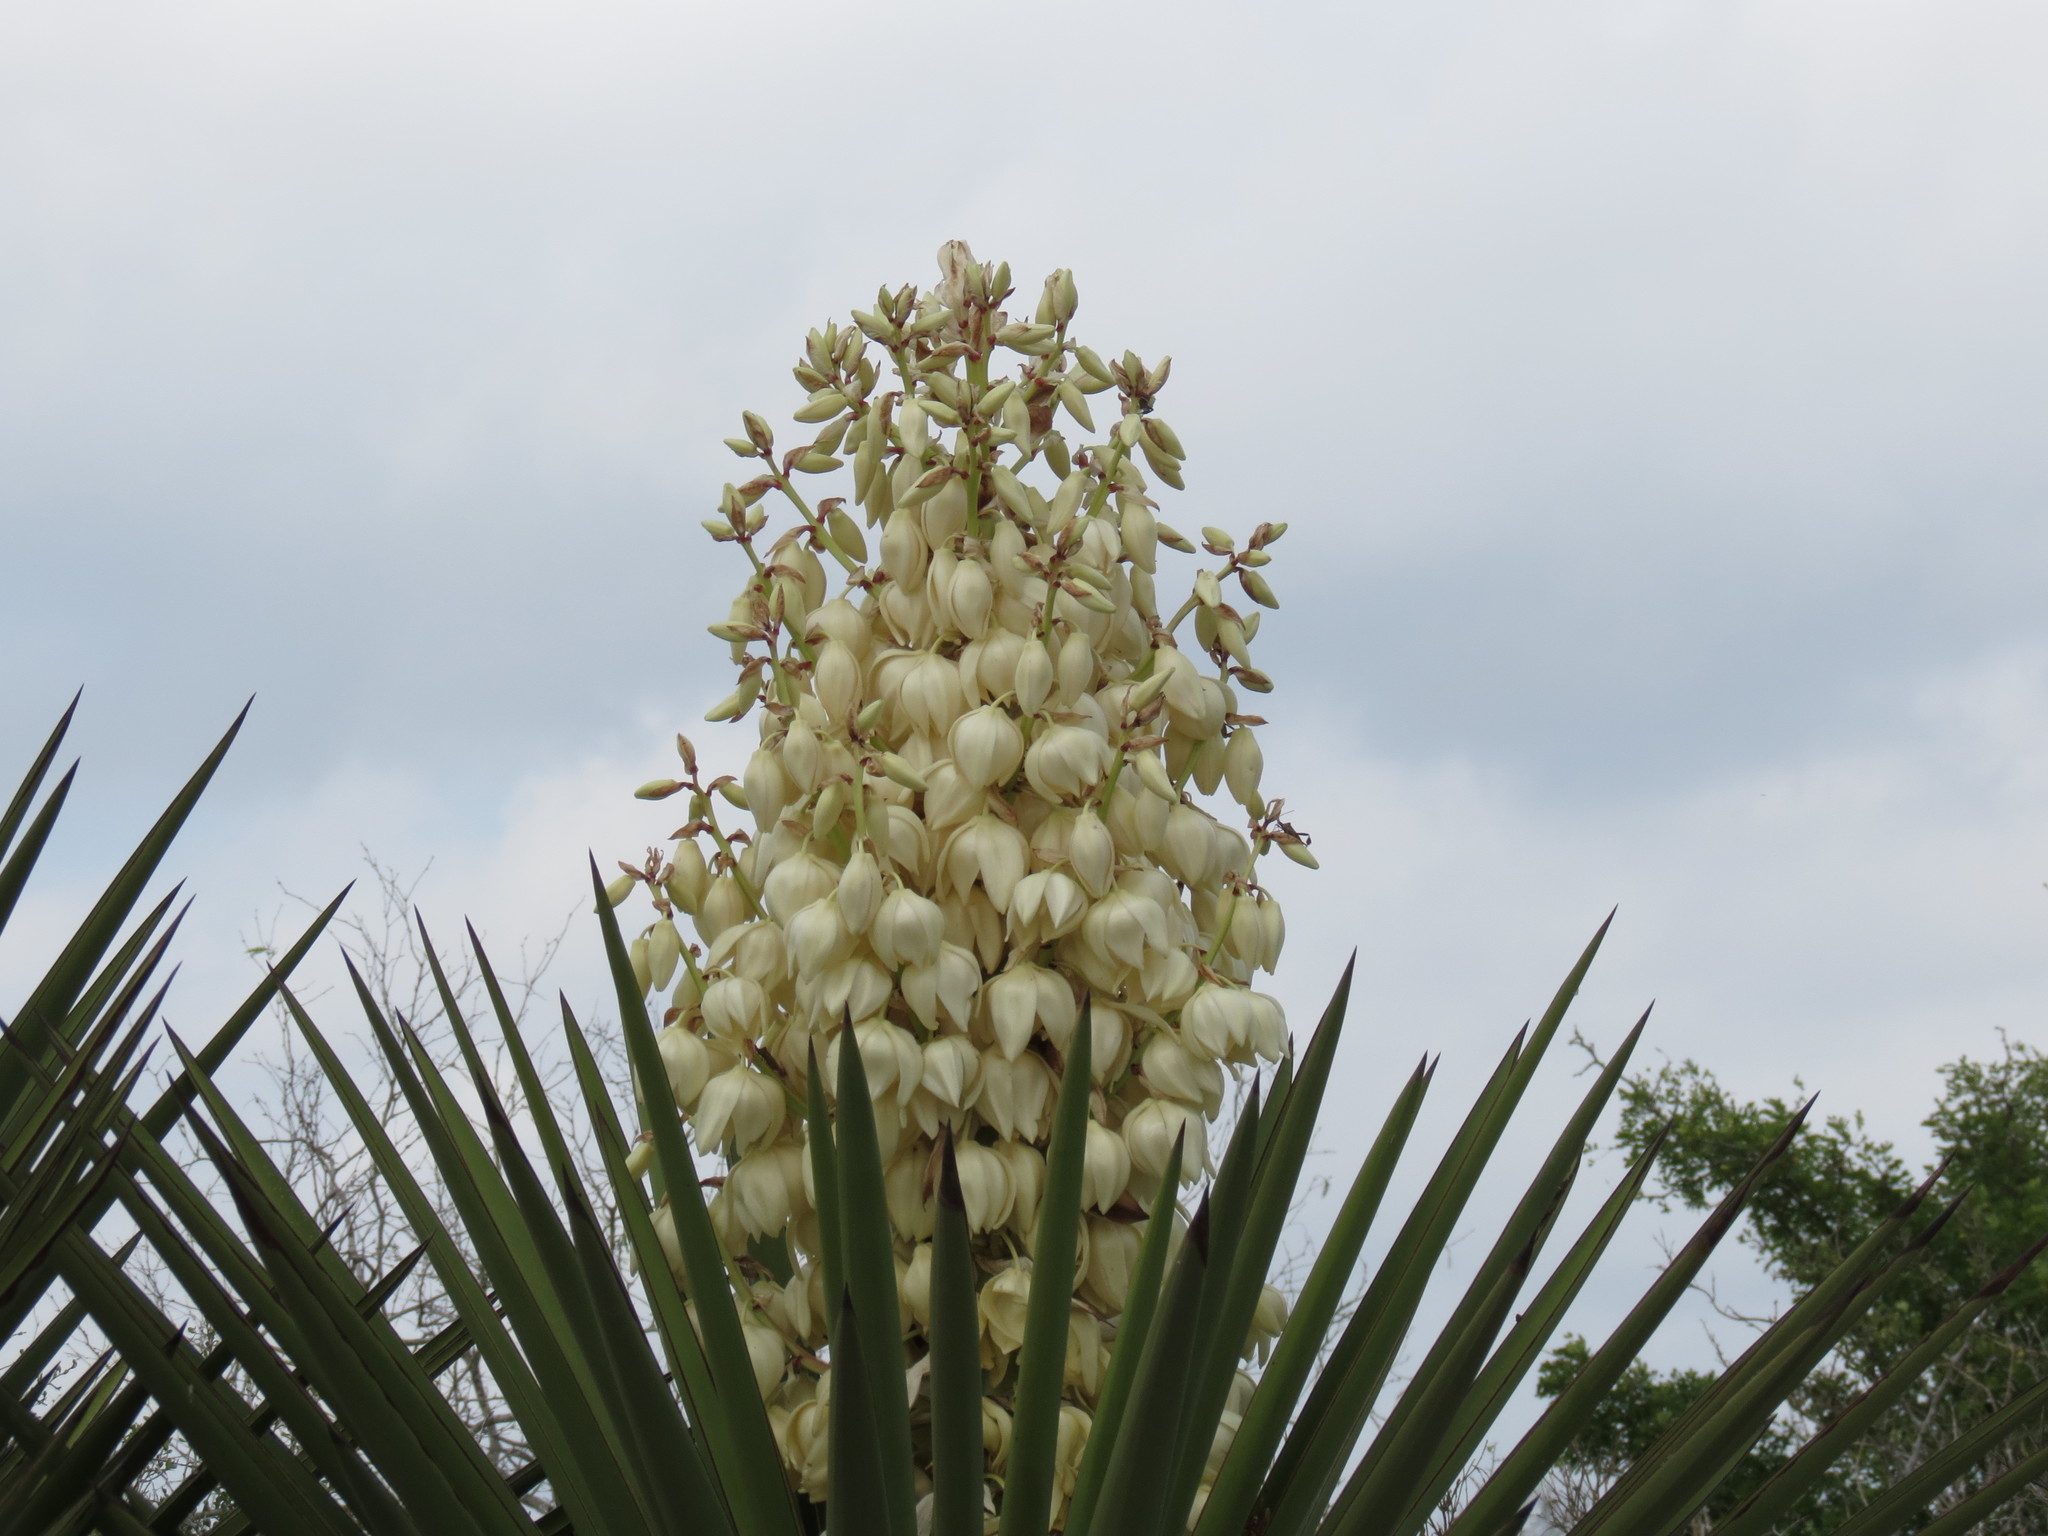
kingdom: Plantae
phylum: Tracheophyta
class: Liliopsida
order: Asparagales
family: Asparagaceae
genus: Yucca
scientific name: Yucca treculiana
